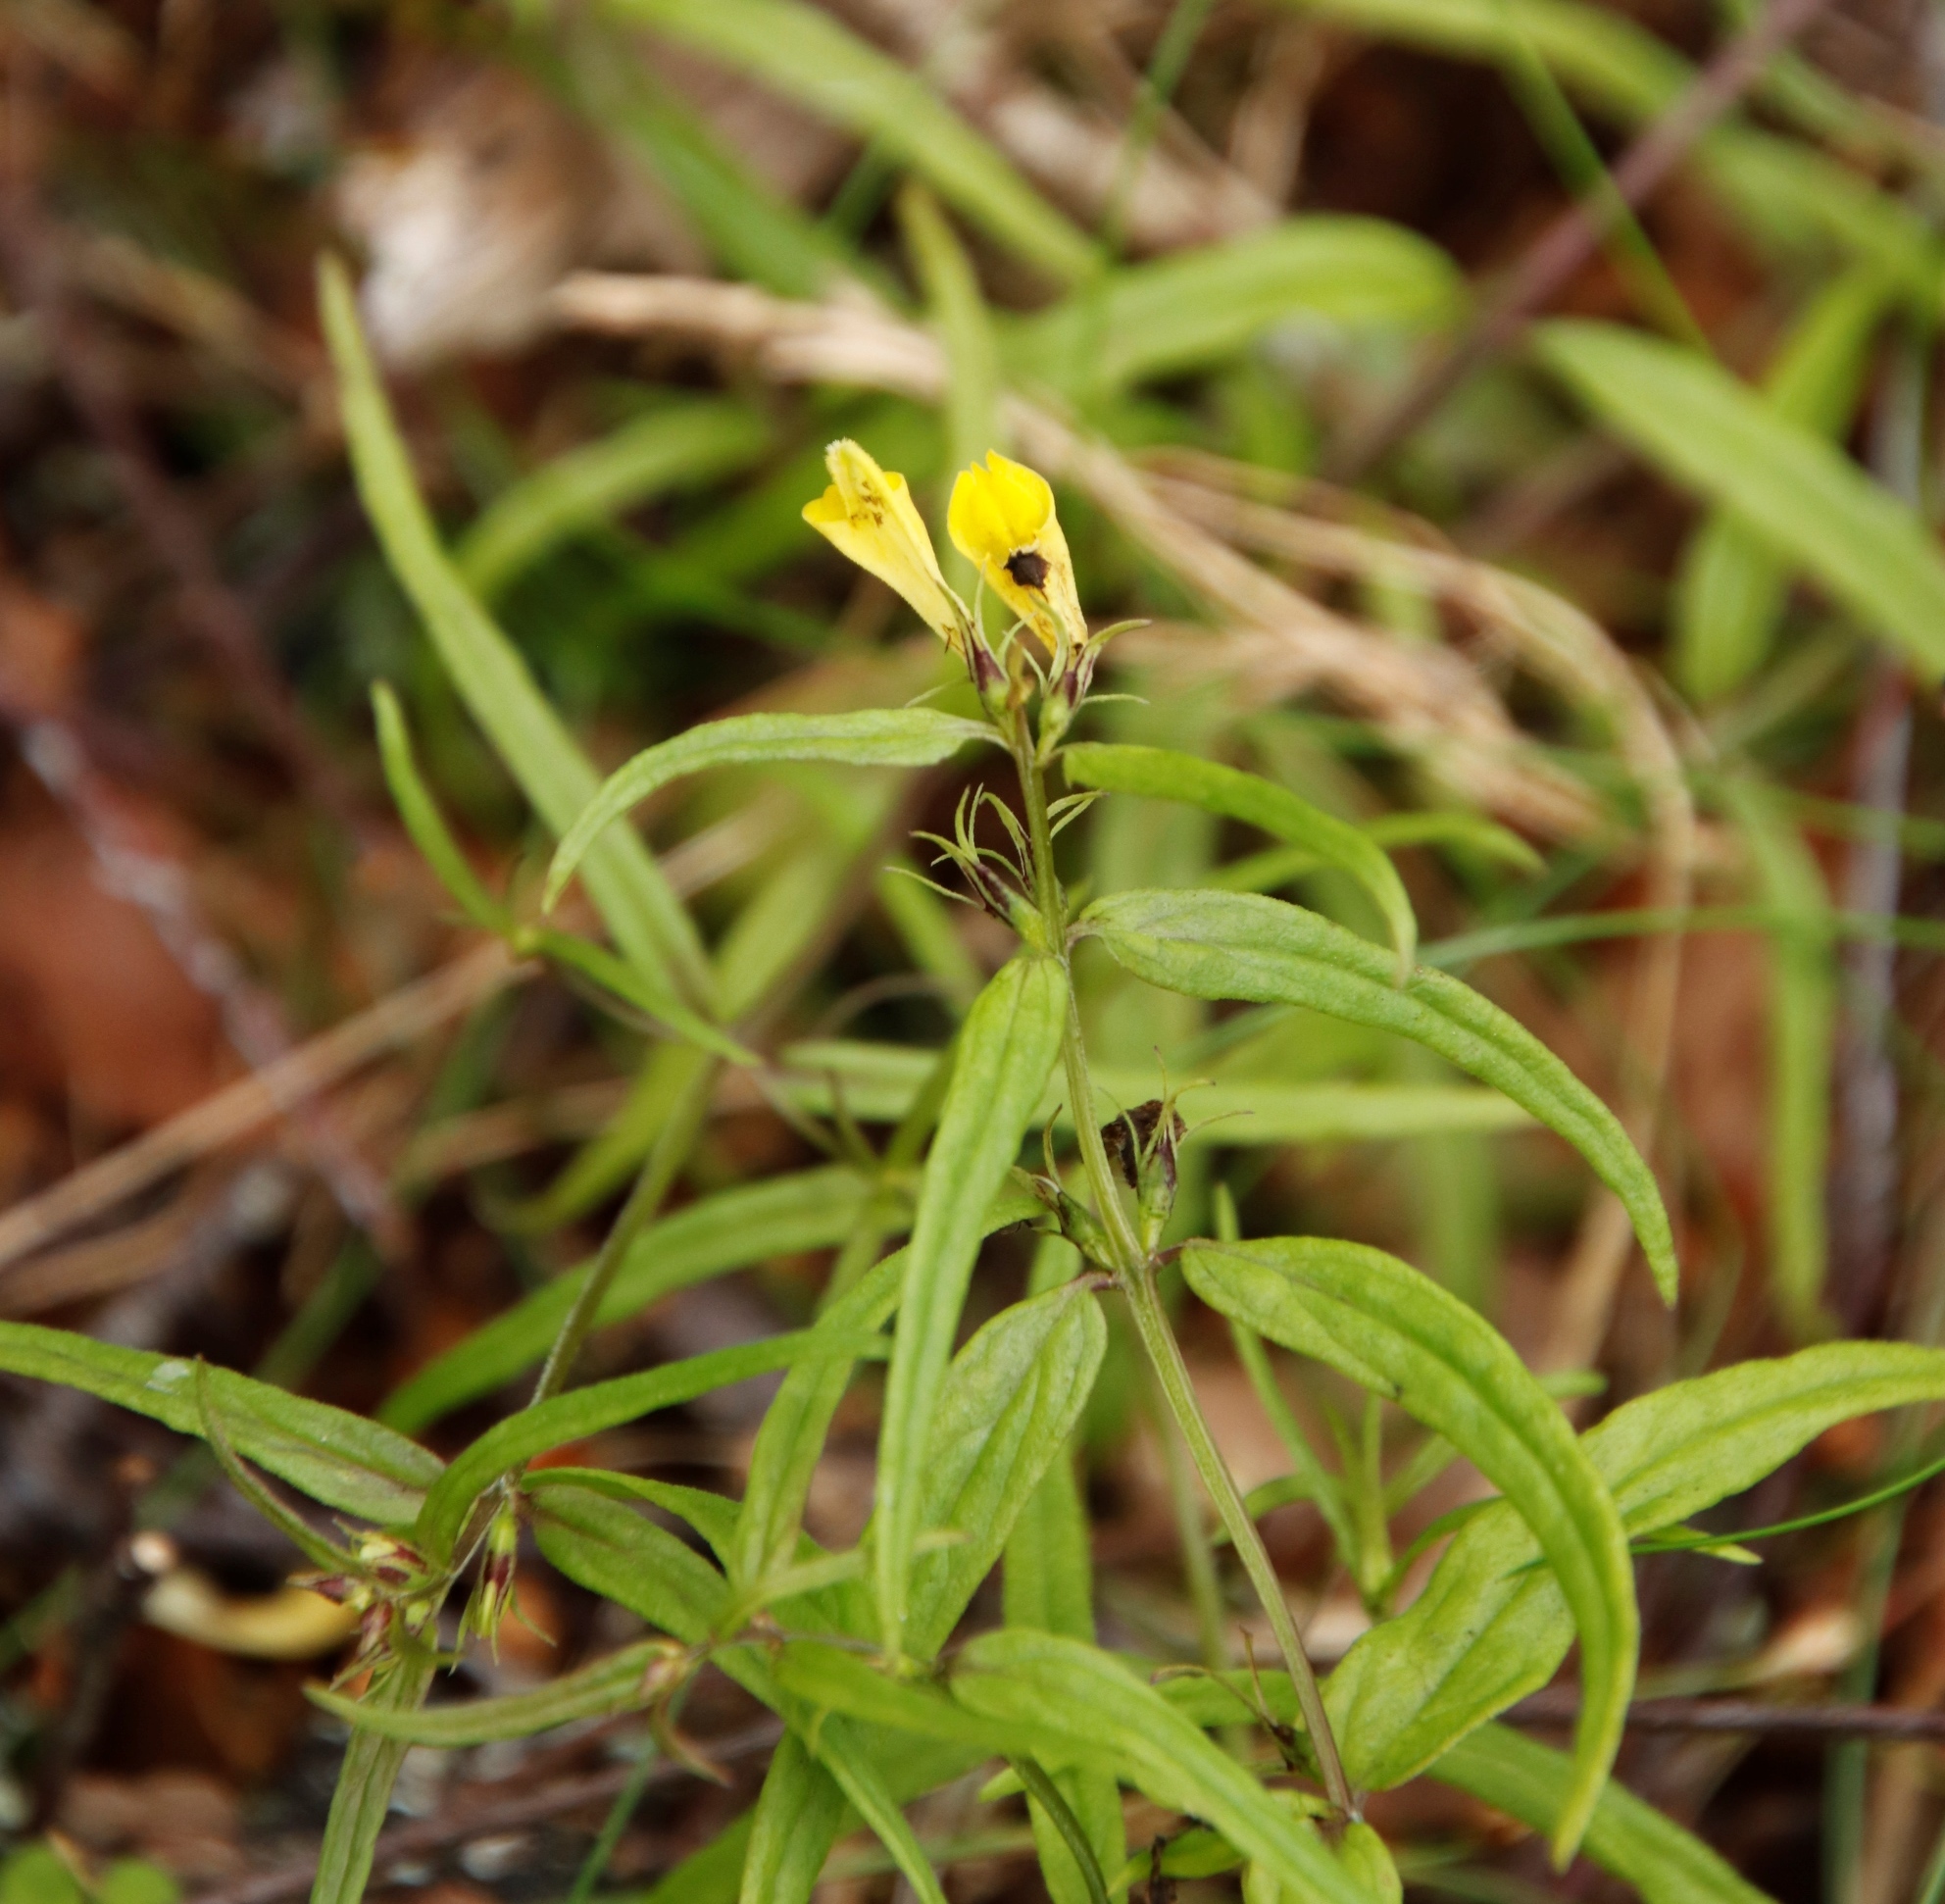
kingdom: Plantae
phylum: Tracheophyta
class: Magnoliopsida
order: Lamiales
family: Orobanchaceae
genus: Melampyrum
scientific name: Melampyrum pratense
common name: Common cow-wheat
